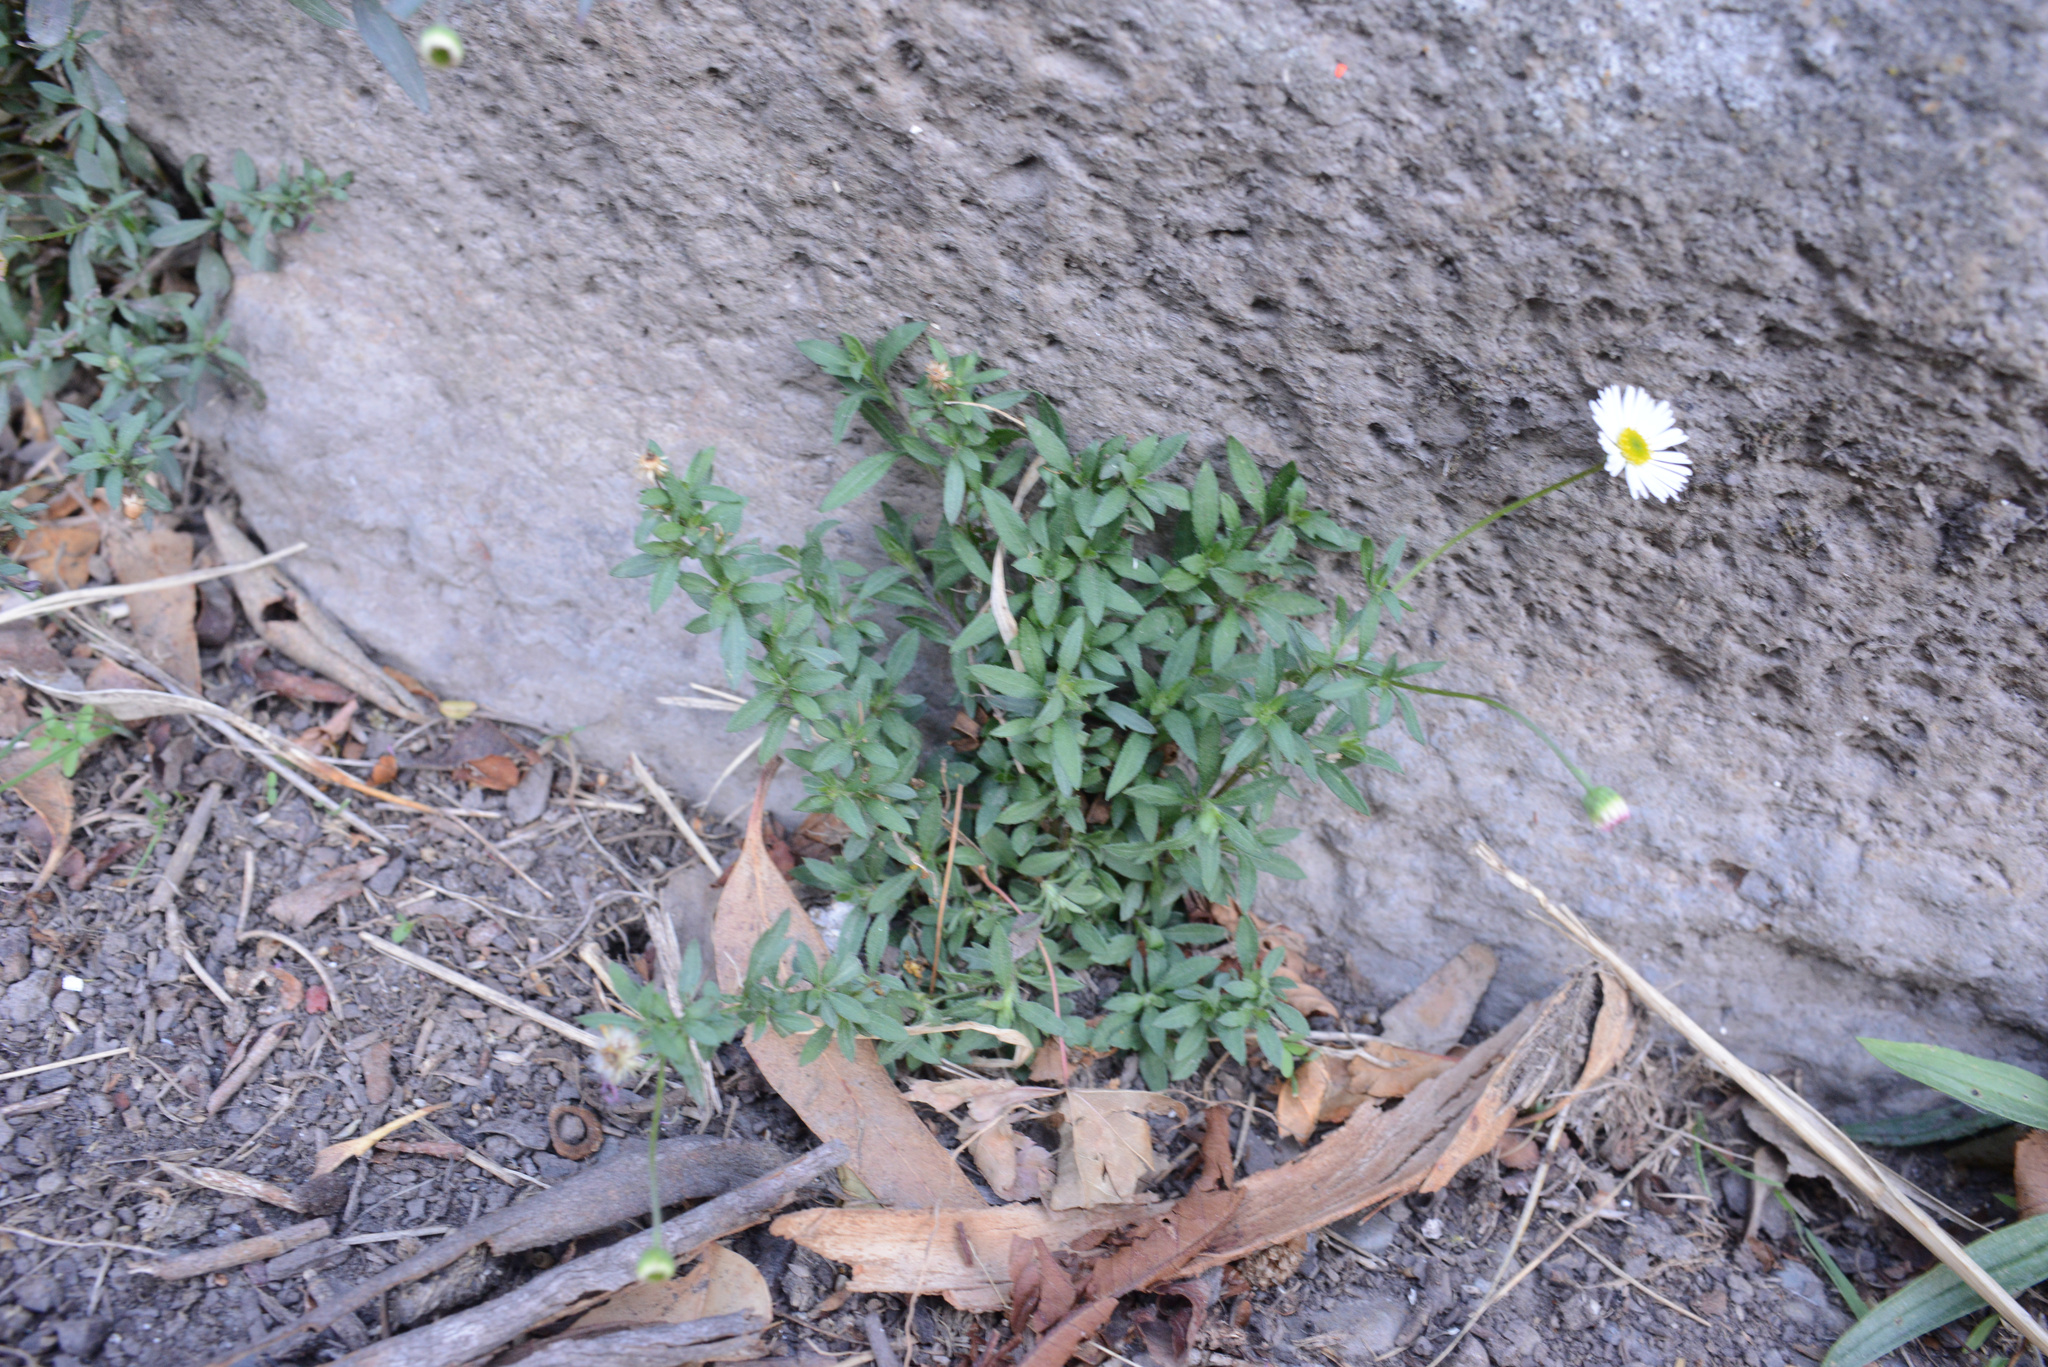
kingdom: Plantae
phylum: Tracheophyta
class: Magnoliopsida
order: Asterales
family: Asteraceae
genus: Erigeron
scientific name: Erigeron karvinskianus
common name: Mexican fleabane
